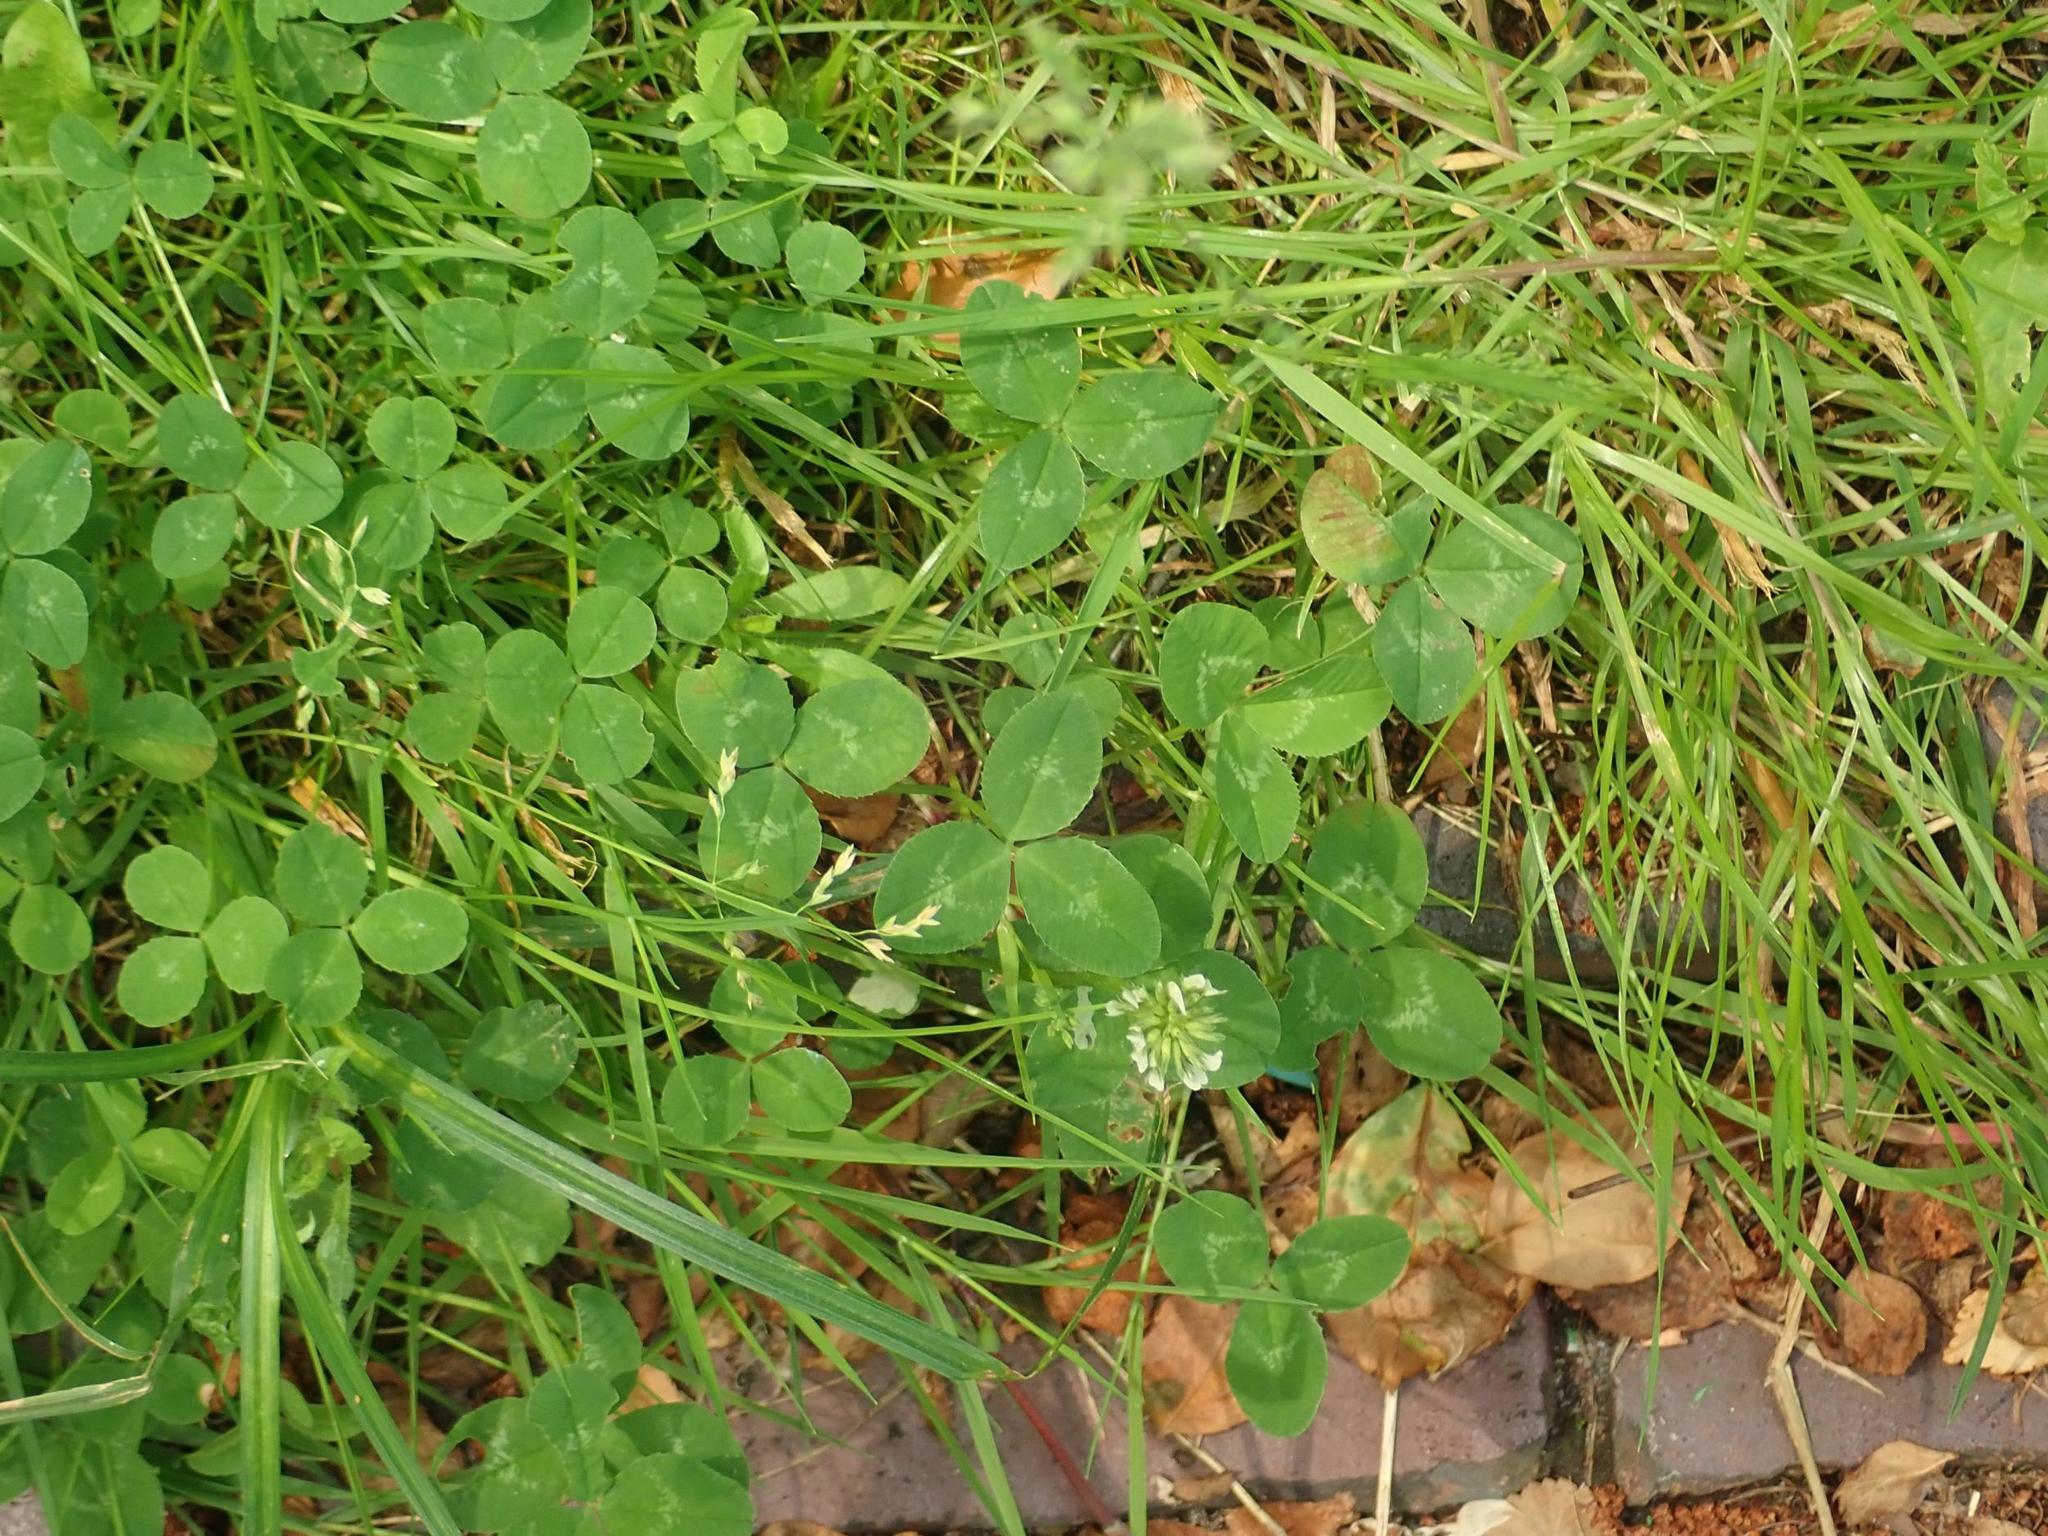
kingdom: Plantae
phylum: Tracheophyta
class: Magnoliopsida
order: Fabales
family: Fabaceae
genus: Trifolium
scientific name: Trifolium repens
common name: White clover
